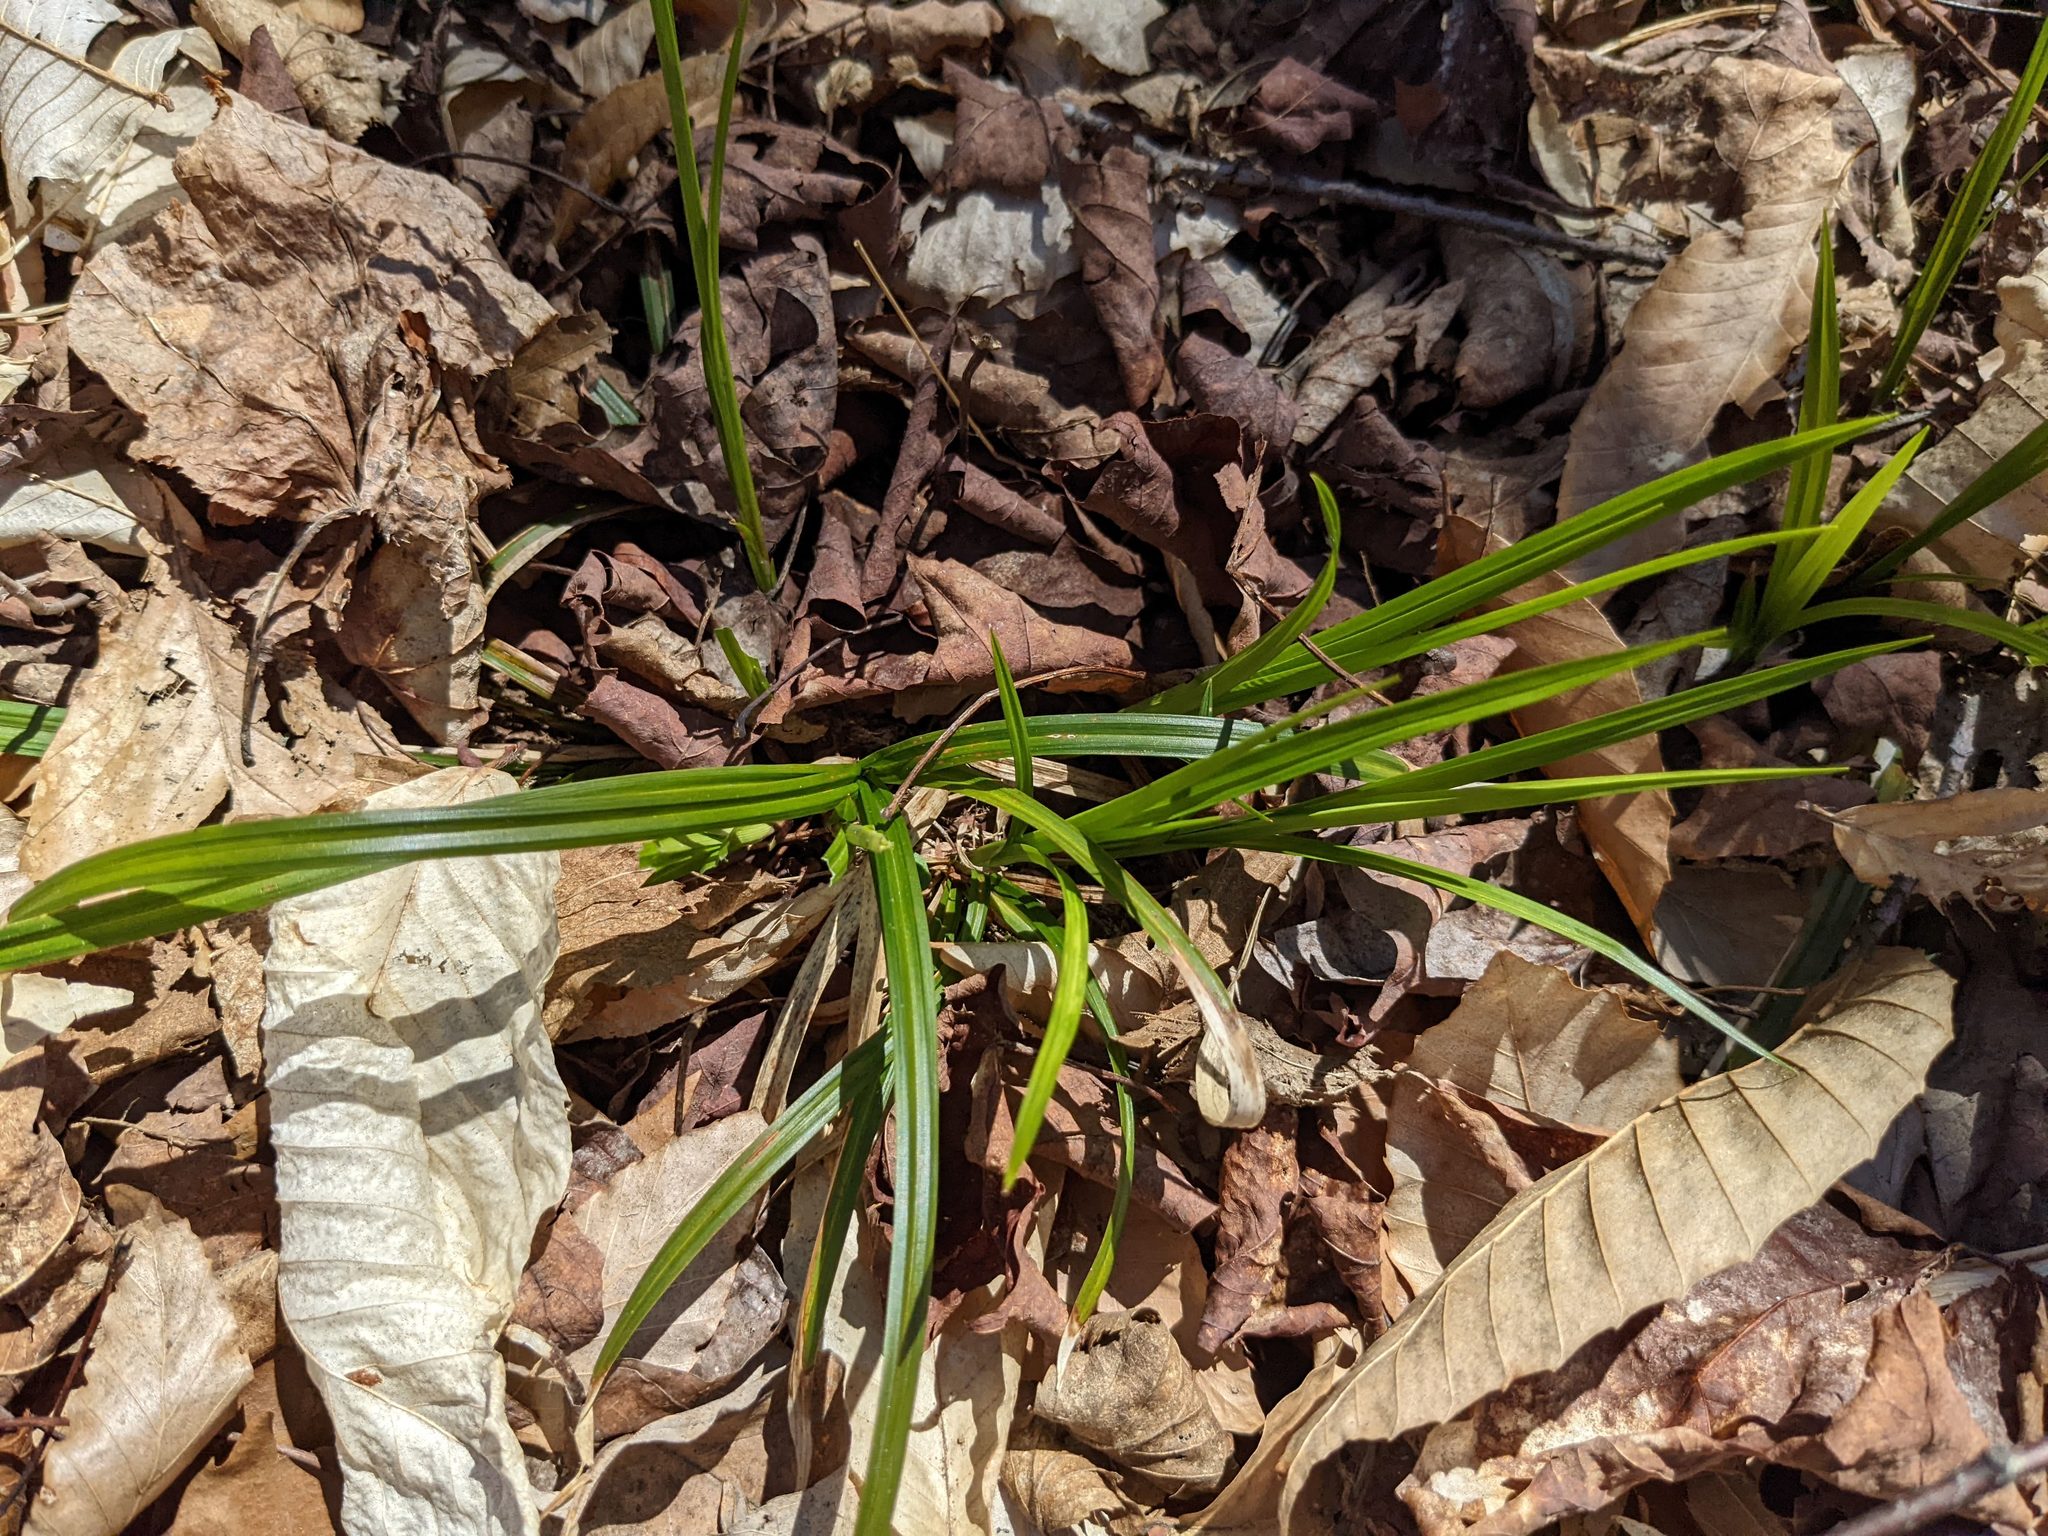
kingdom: Plantae
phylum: Tracheophyta
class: Magnoliopsida
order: Fagales
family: Fagaceae
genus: Fagus
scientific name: Fagus grandifolia
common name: American beech
